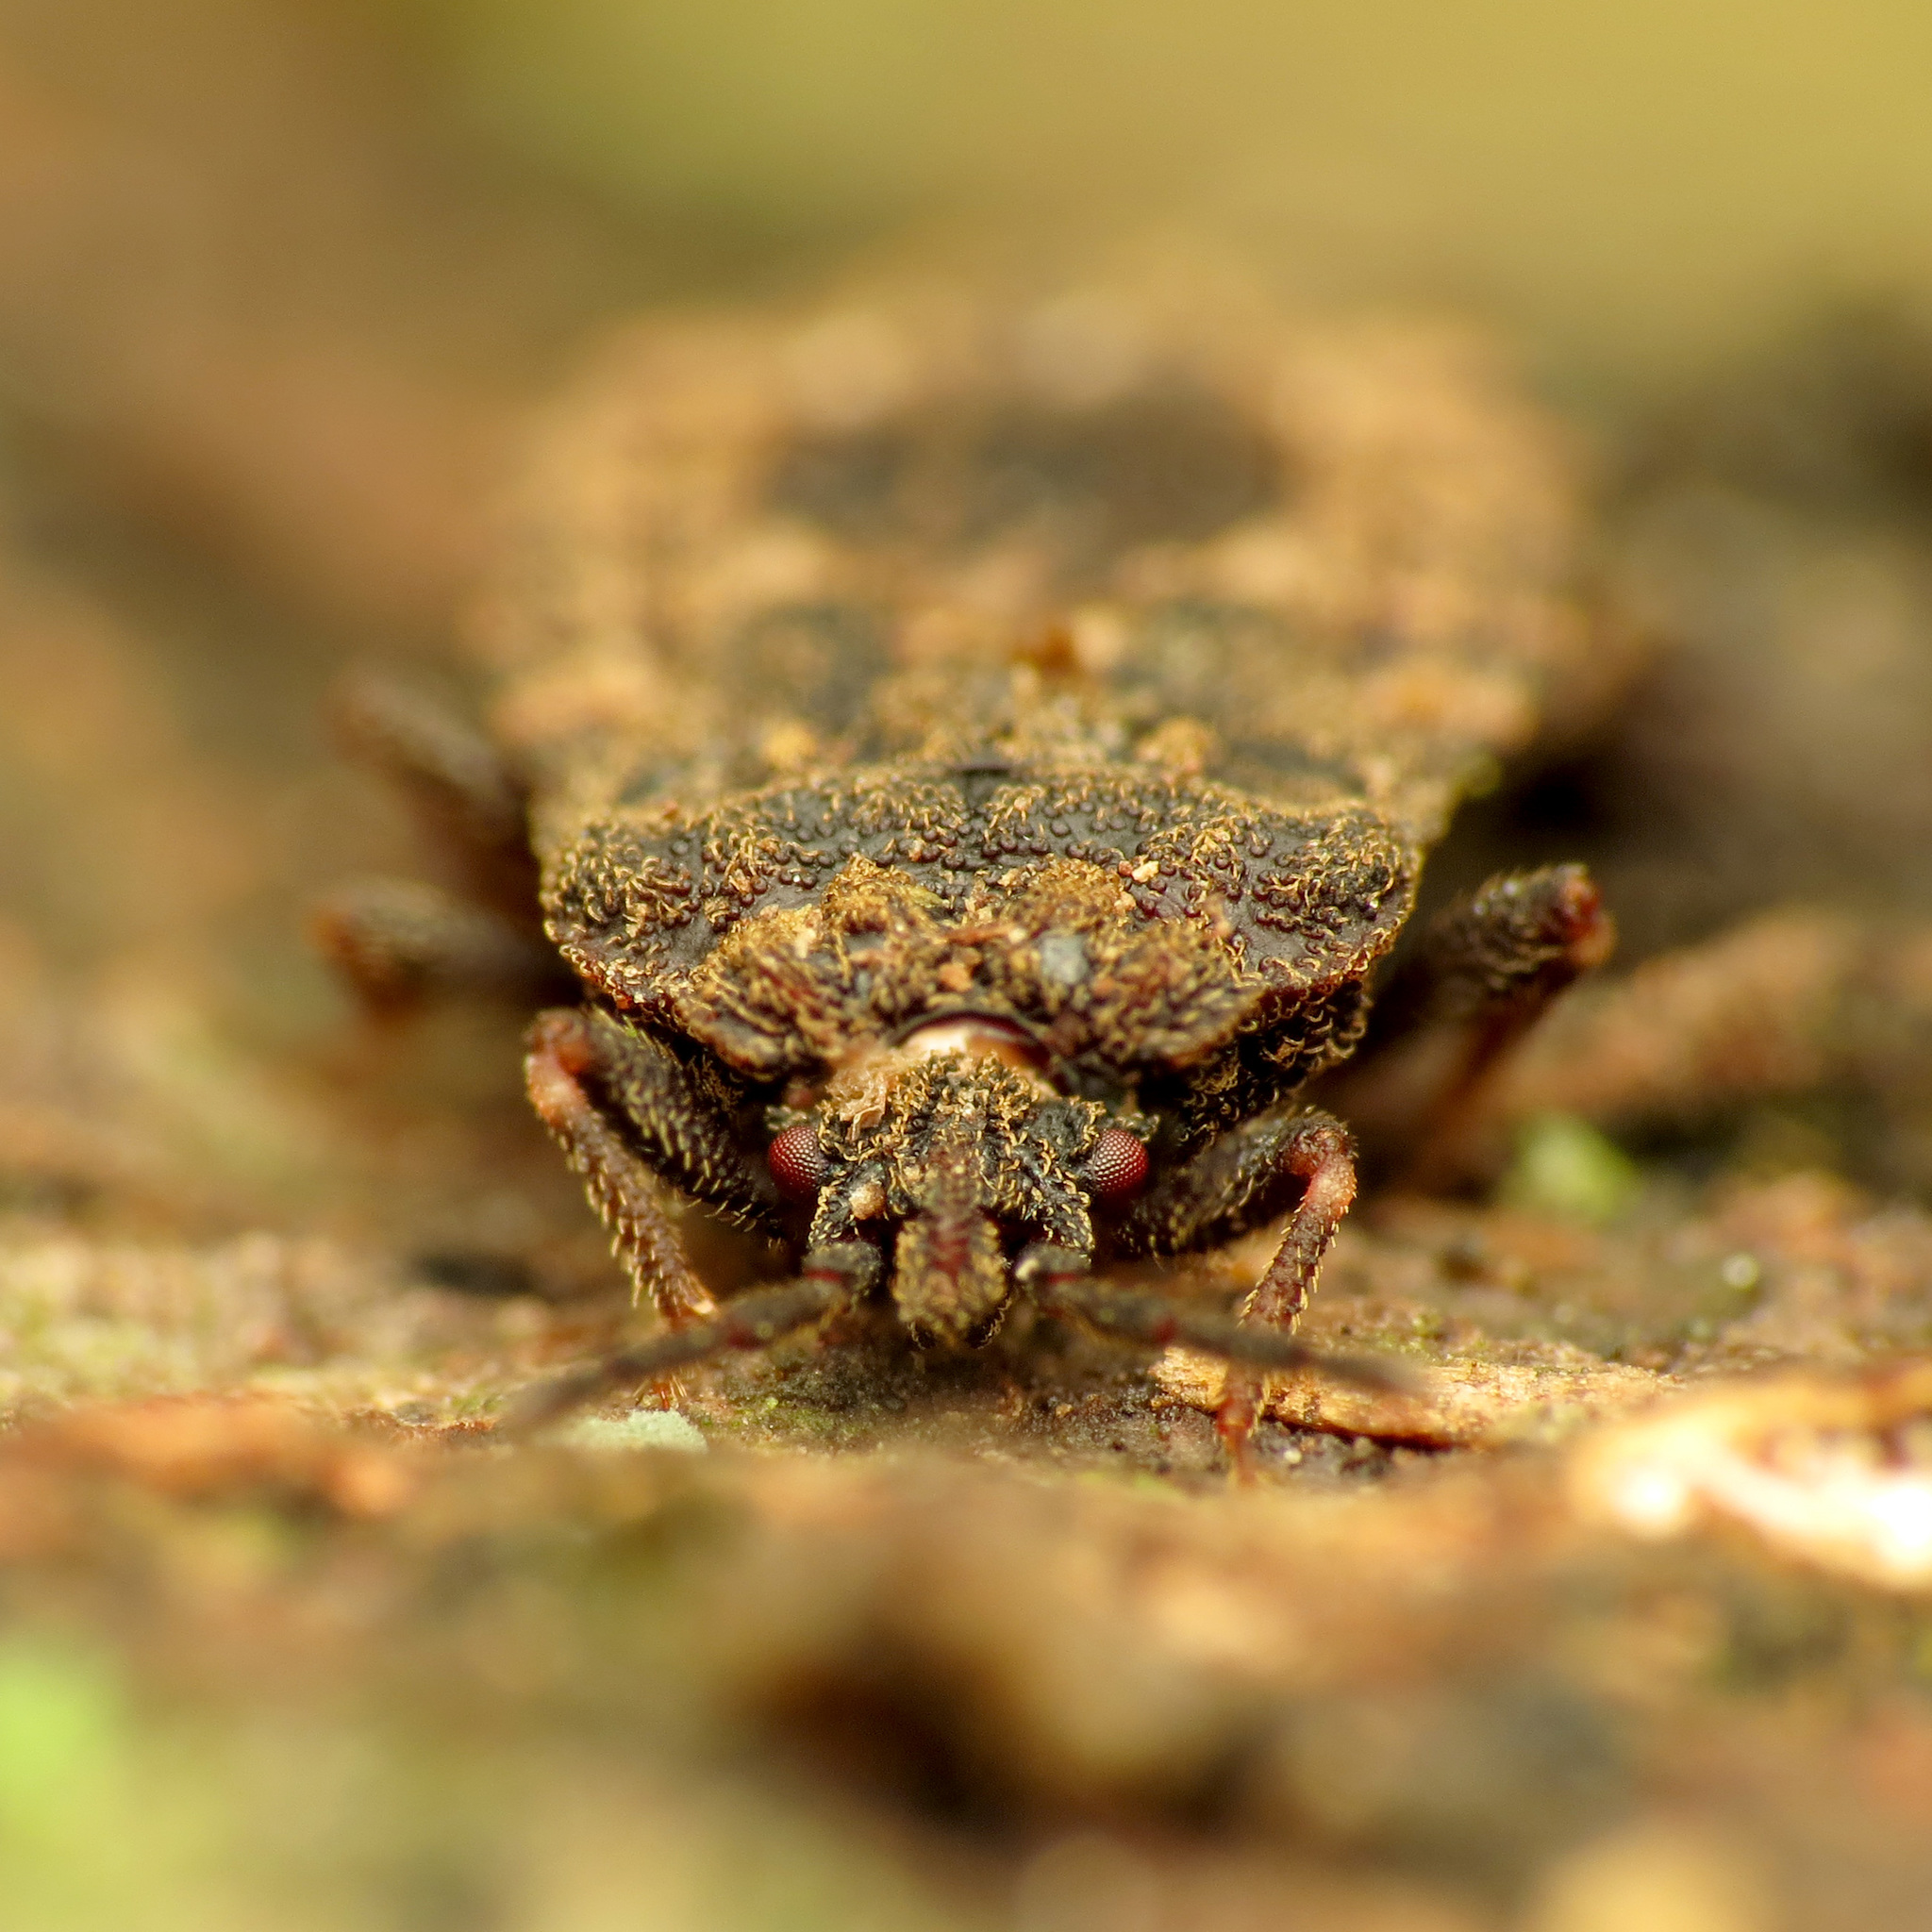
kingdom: Animalia
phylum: Arthropoda
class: Insecta
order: Hemiptera
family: Aradidae
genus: Mezira
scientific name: Mezira
